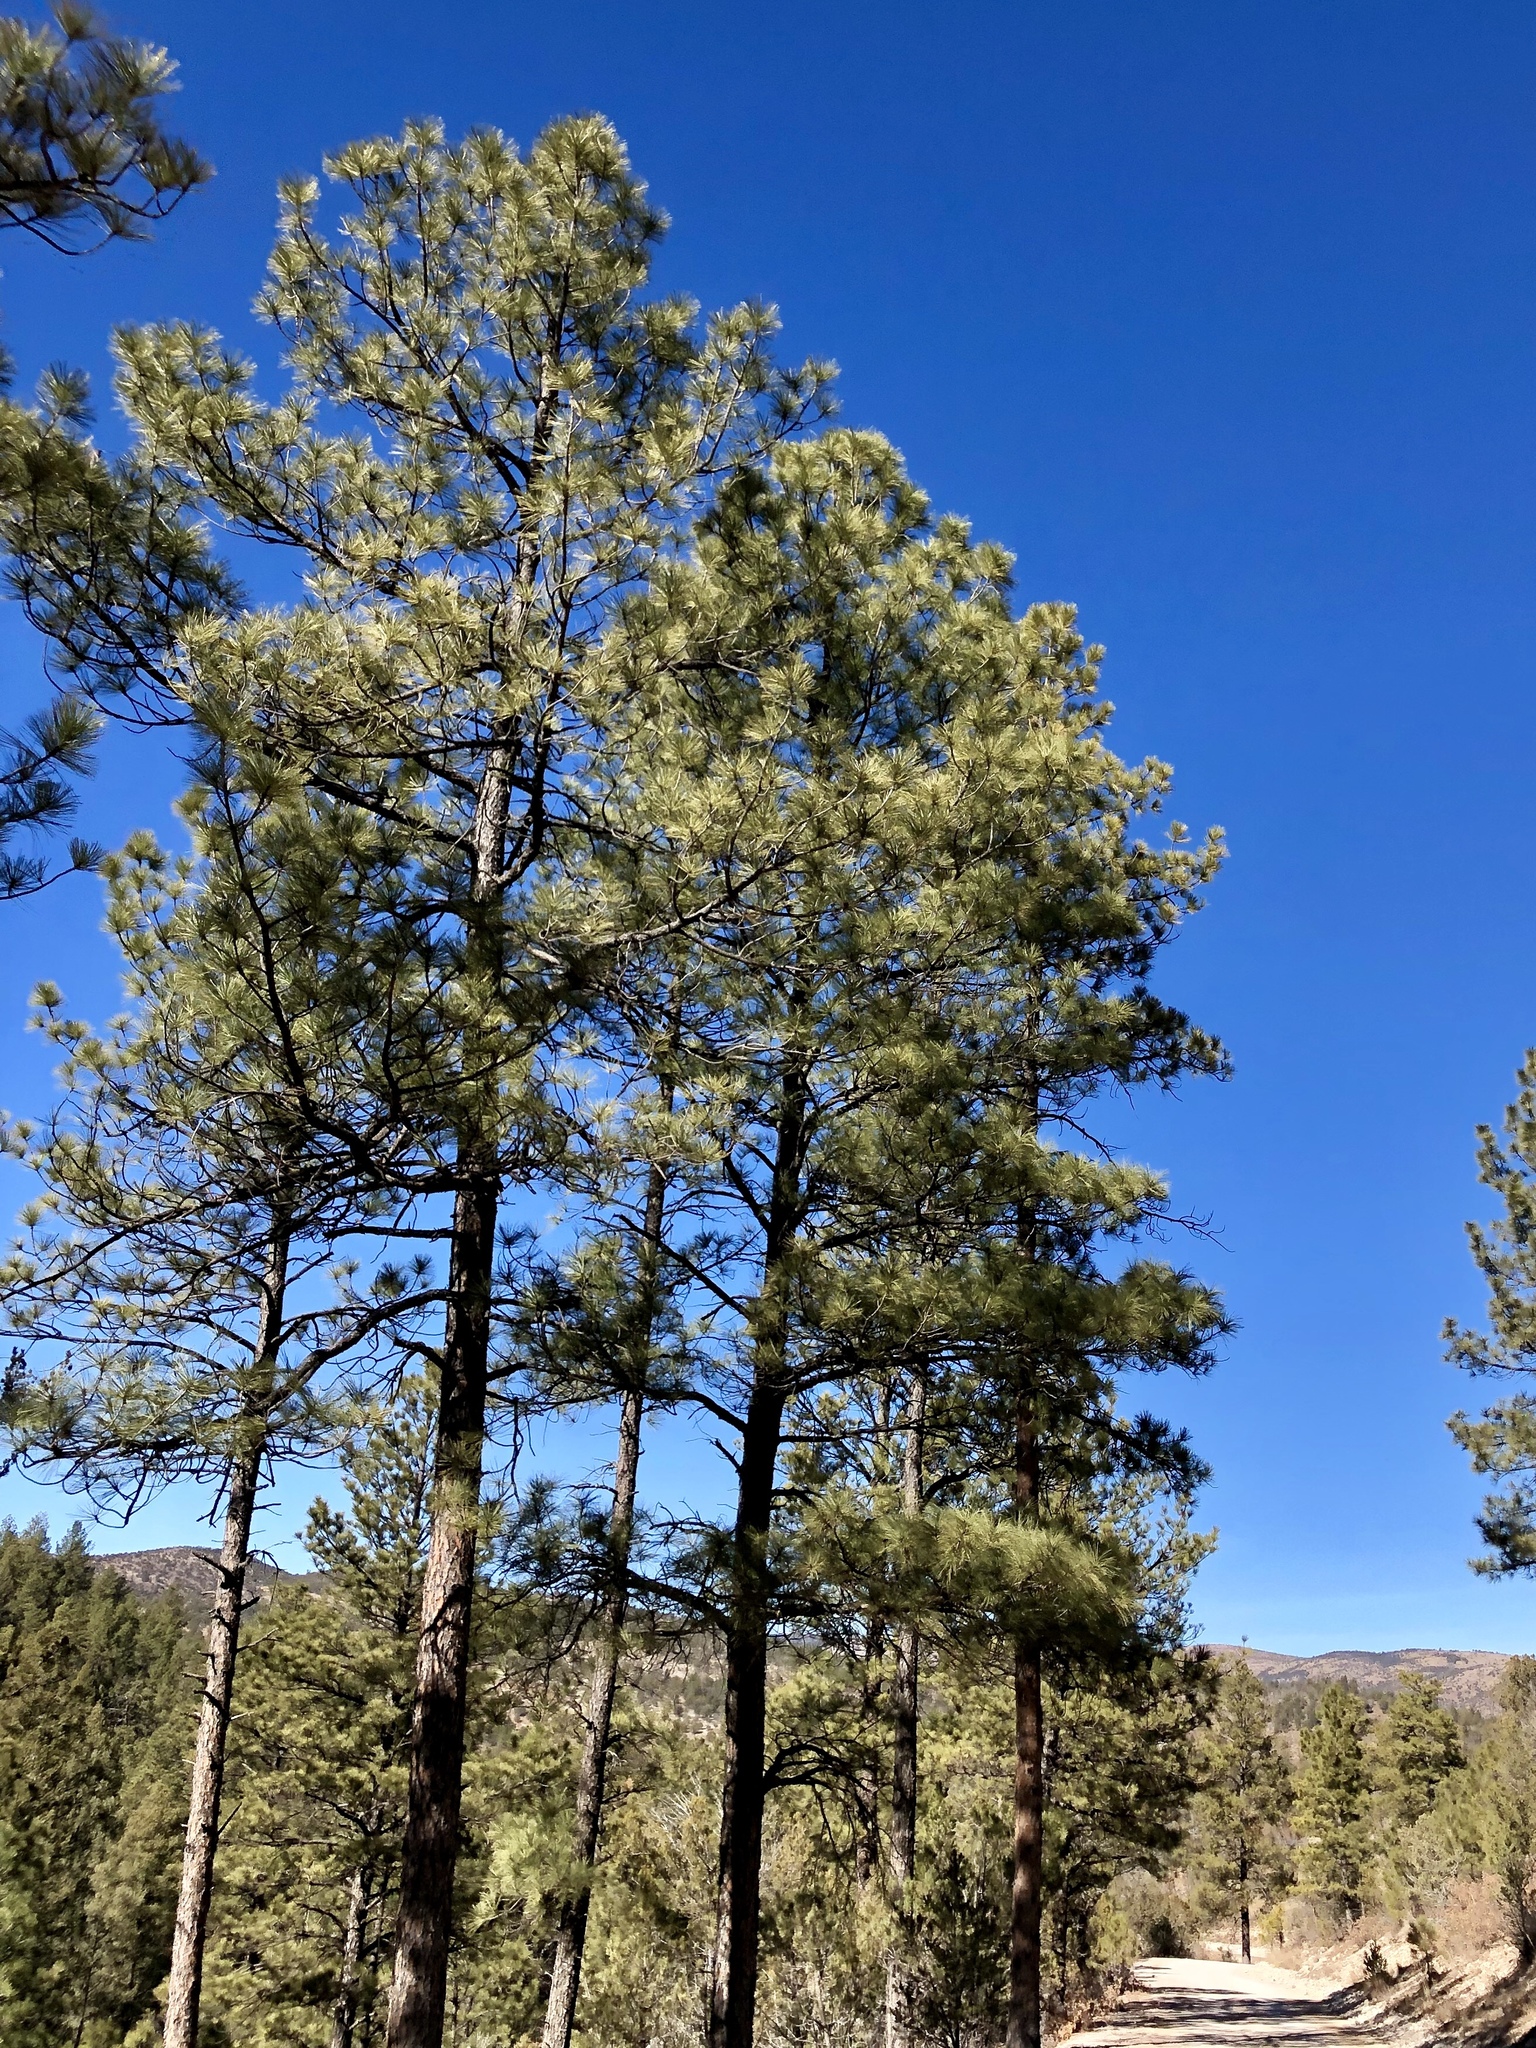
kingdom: Plantae
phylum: Tracheophyta
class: Pinopsida
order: Pinales
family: Pinaceae
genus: Pinus
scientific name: Pinus ponderosa
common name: Western yellow-pine
